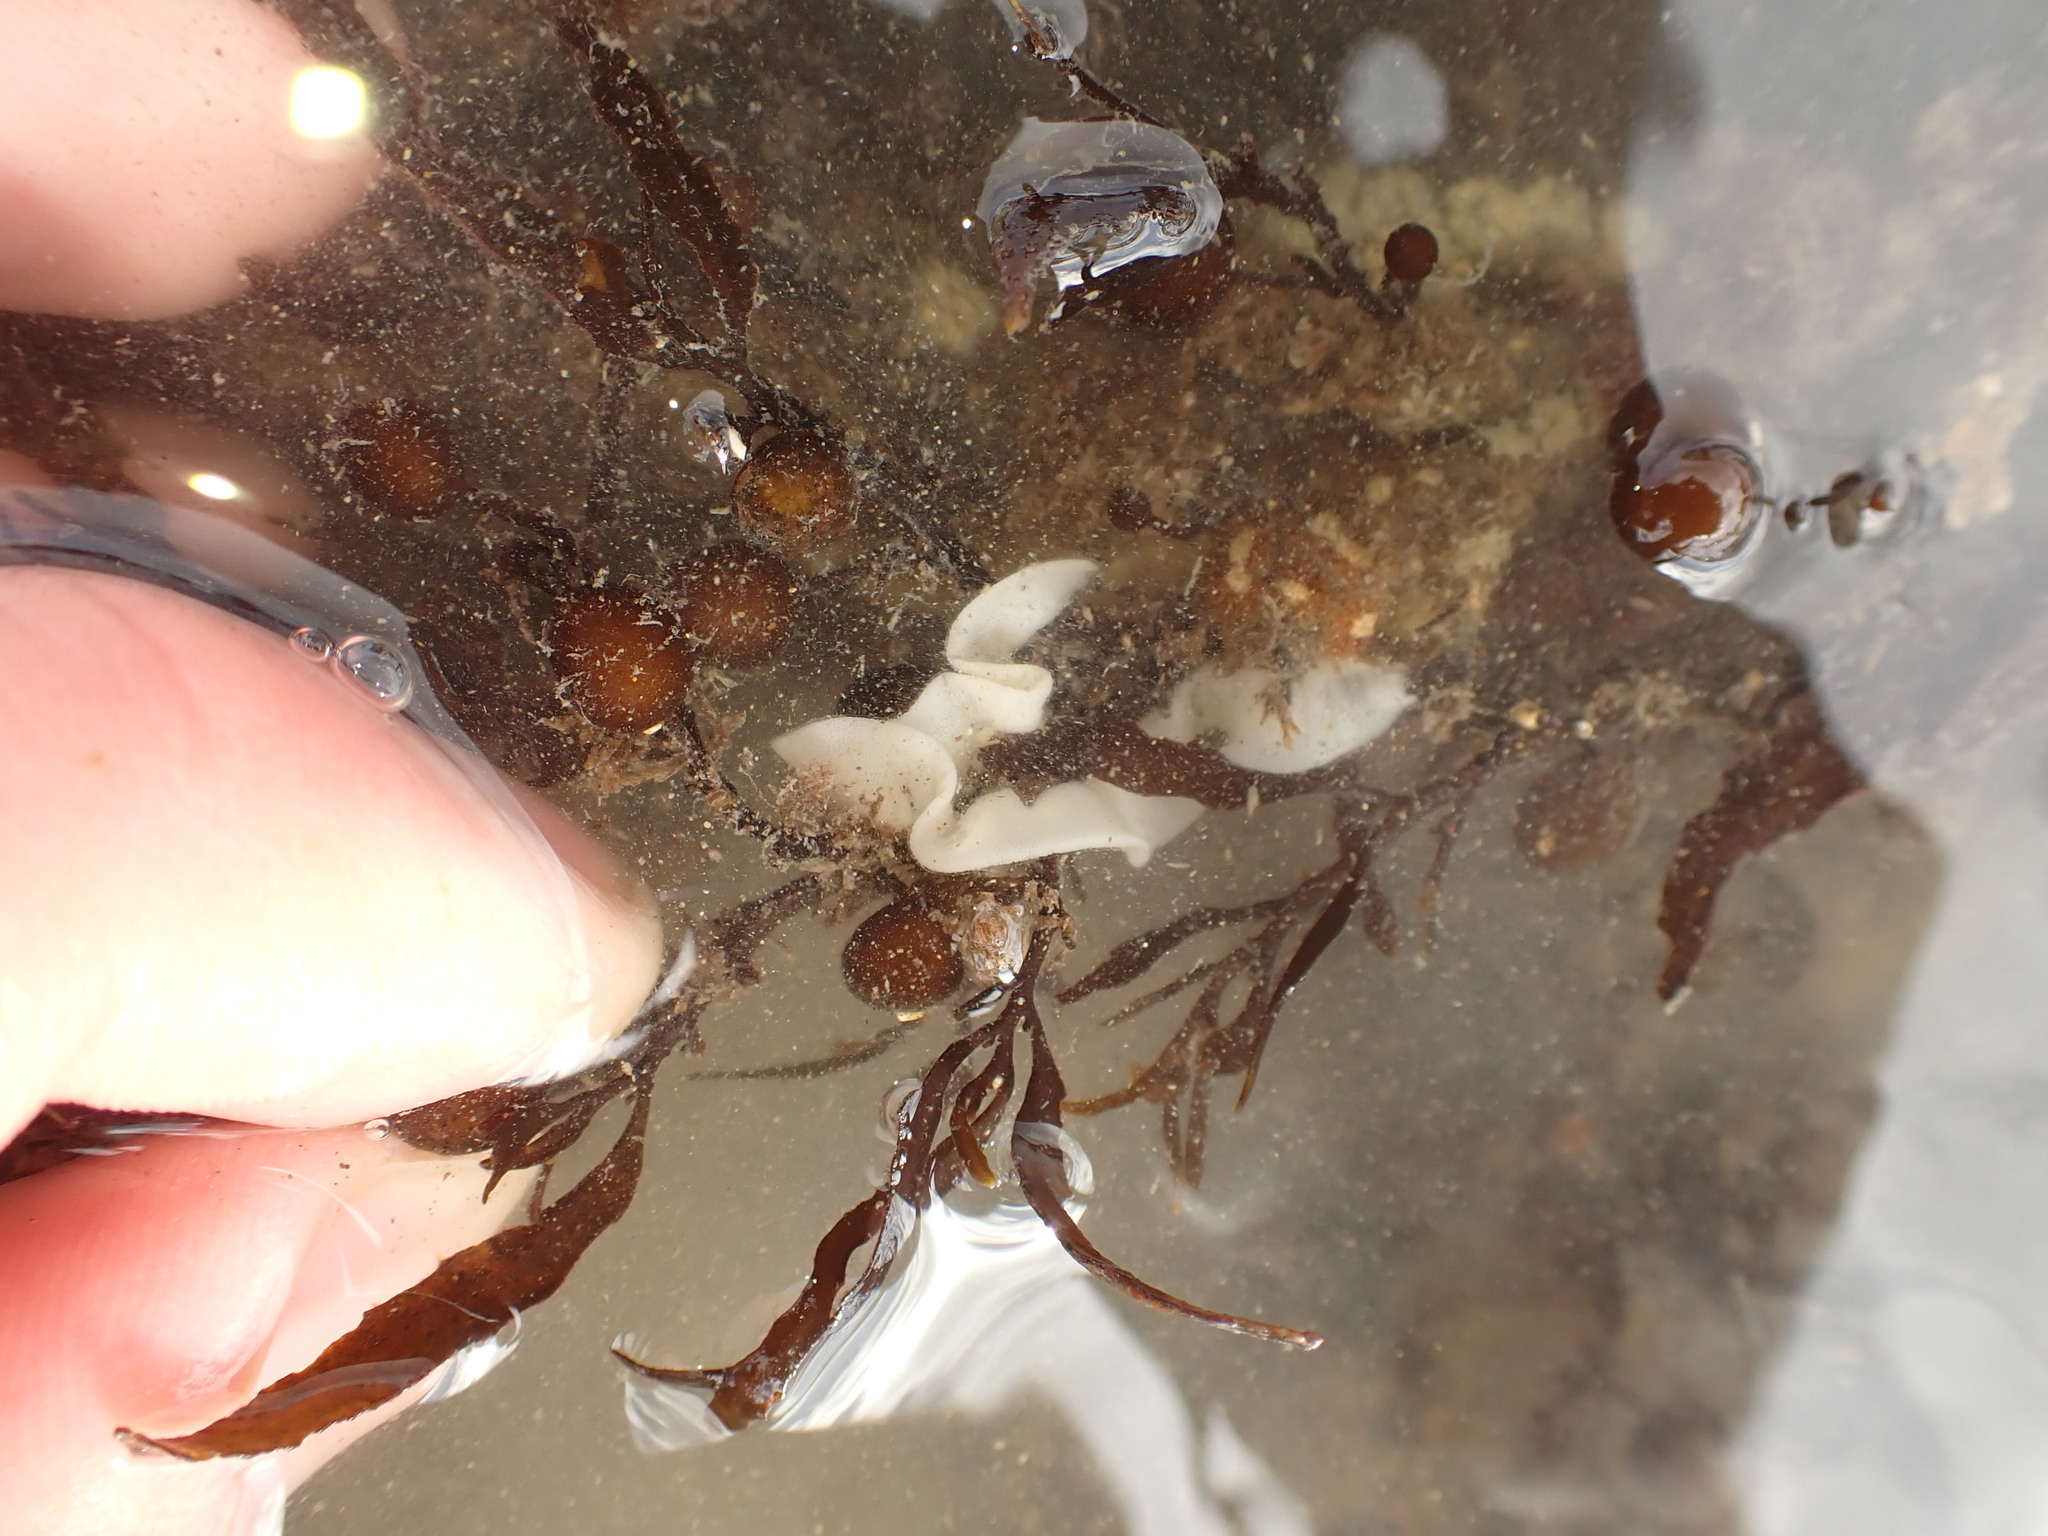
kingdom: Animalia
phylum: Mollusca
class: Gastropoda
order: Nudibranchia
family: Polyceridae
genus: Polycera
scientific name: Polycera fujitai
